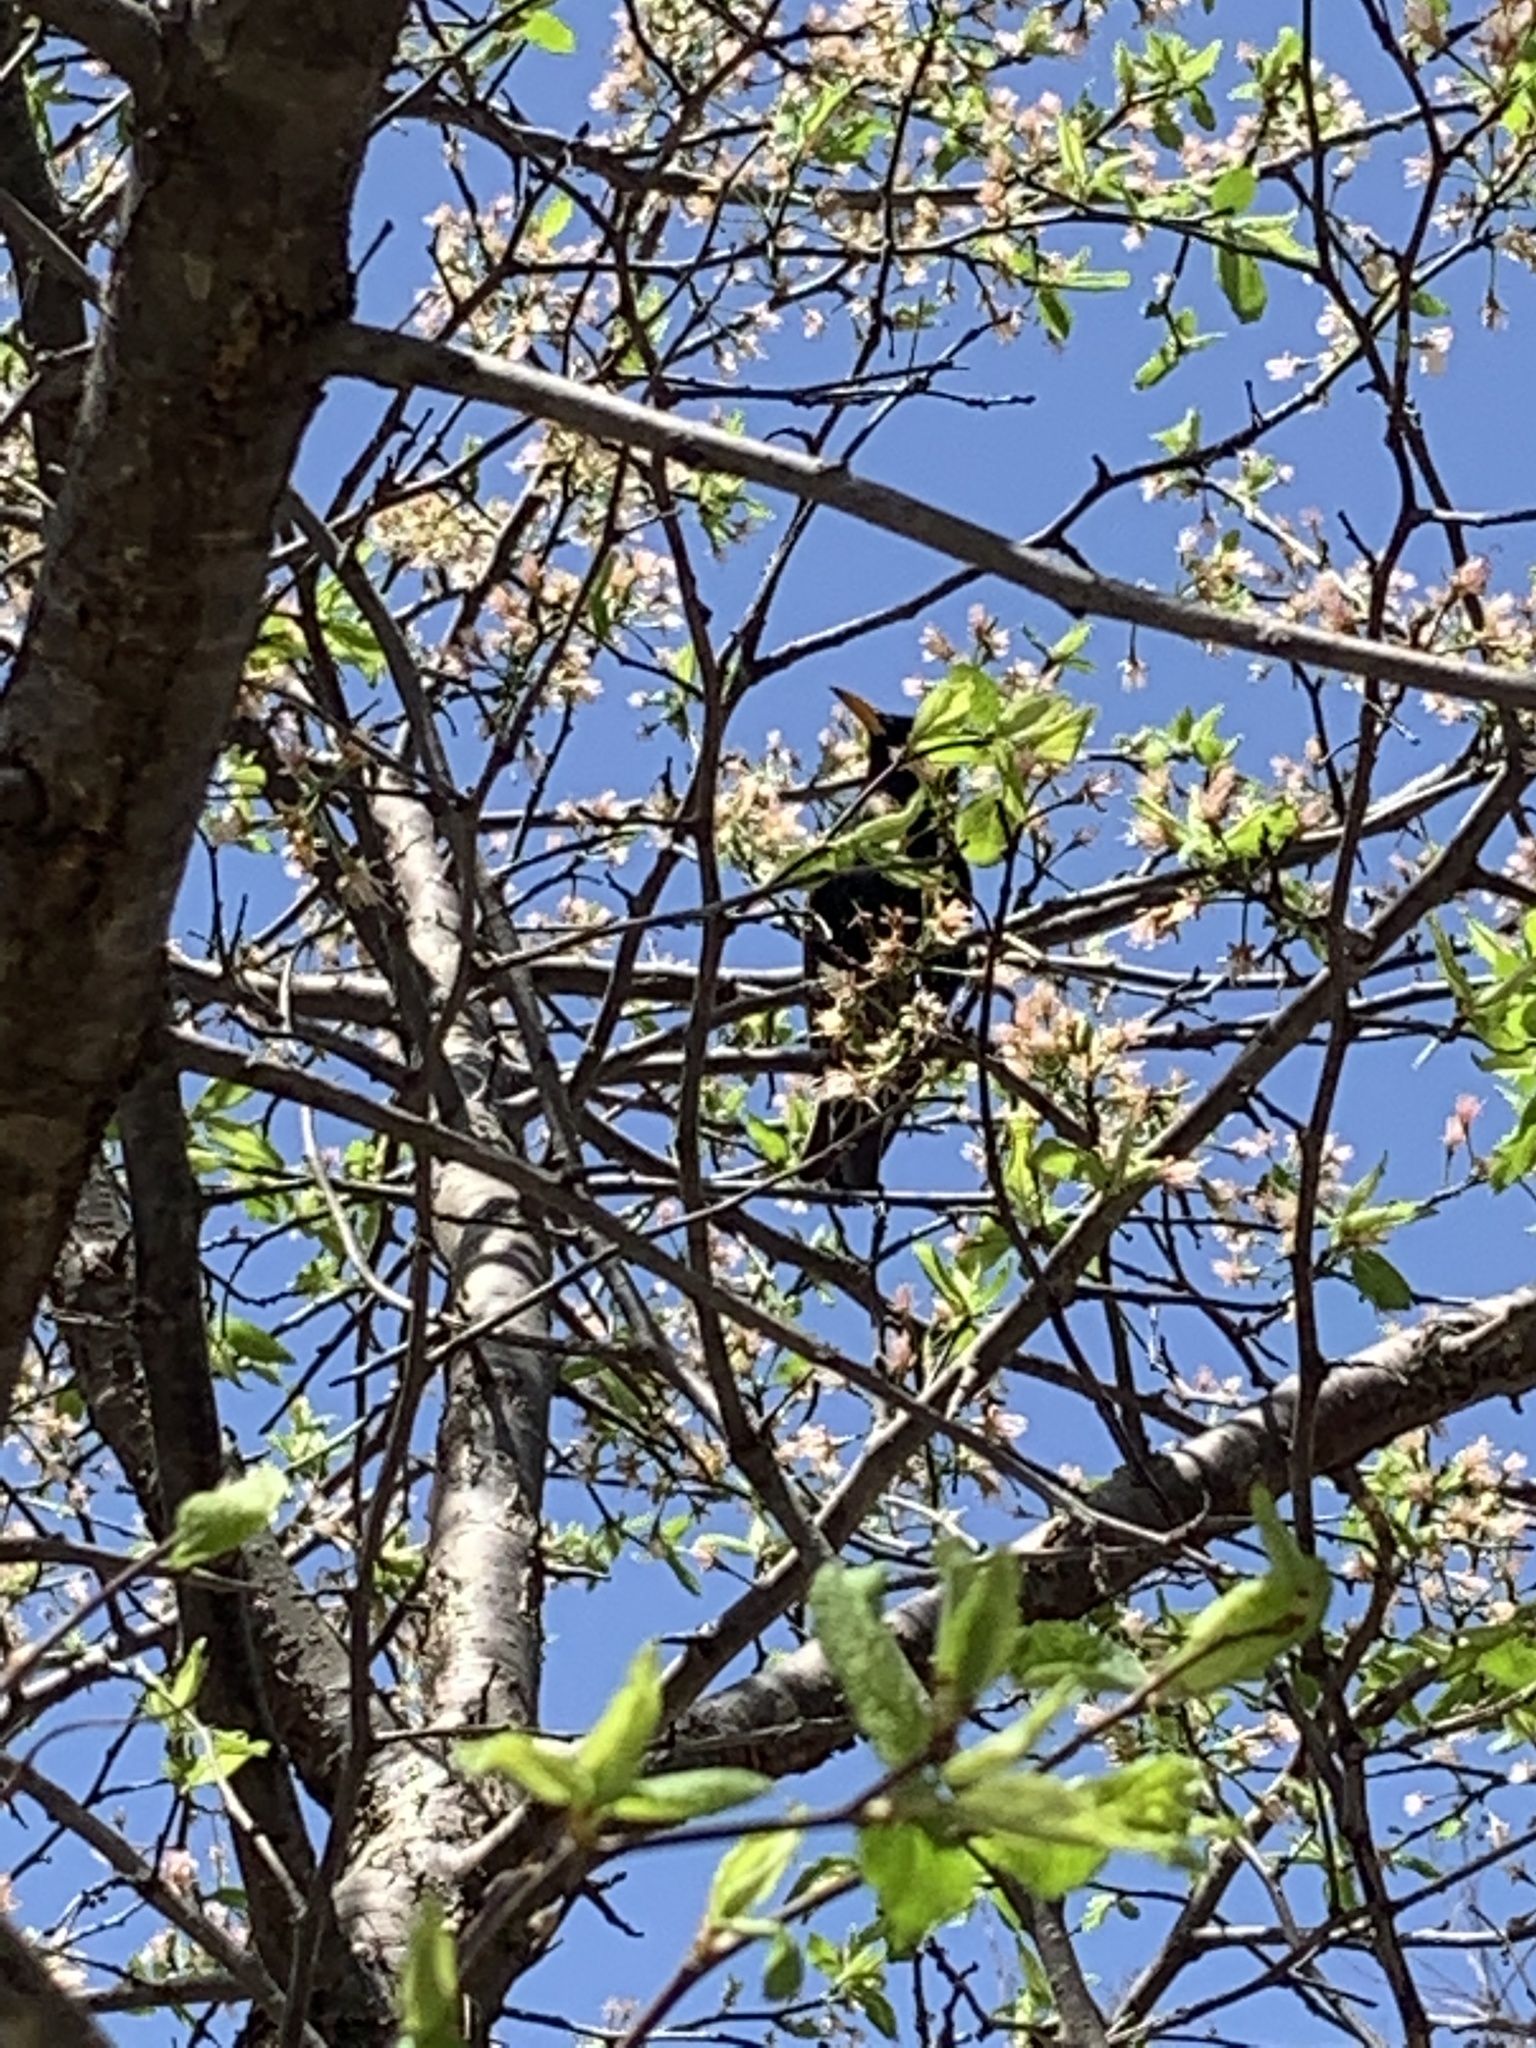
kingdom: Animalia
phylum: Chordata
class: Aves
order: Passeriformes
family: Icteridae
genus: Quiscalus
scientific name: Quiscalus mexicanus
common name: Great-tailed grackle
